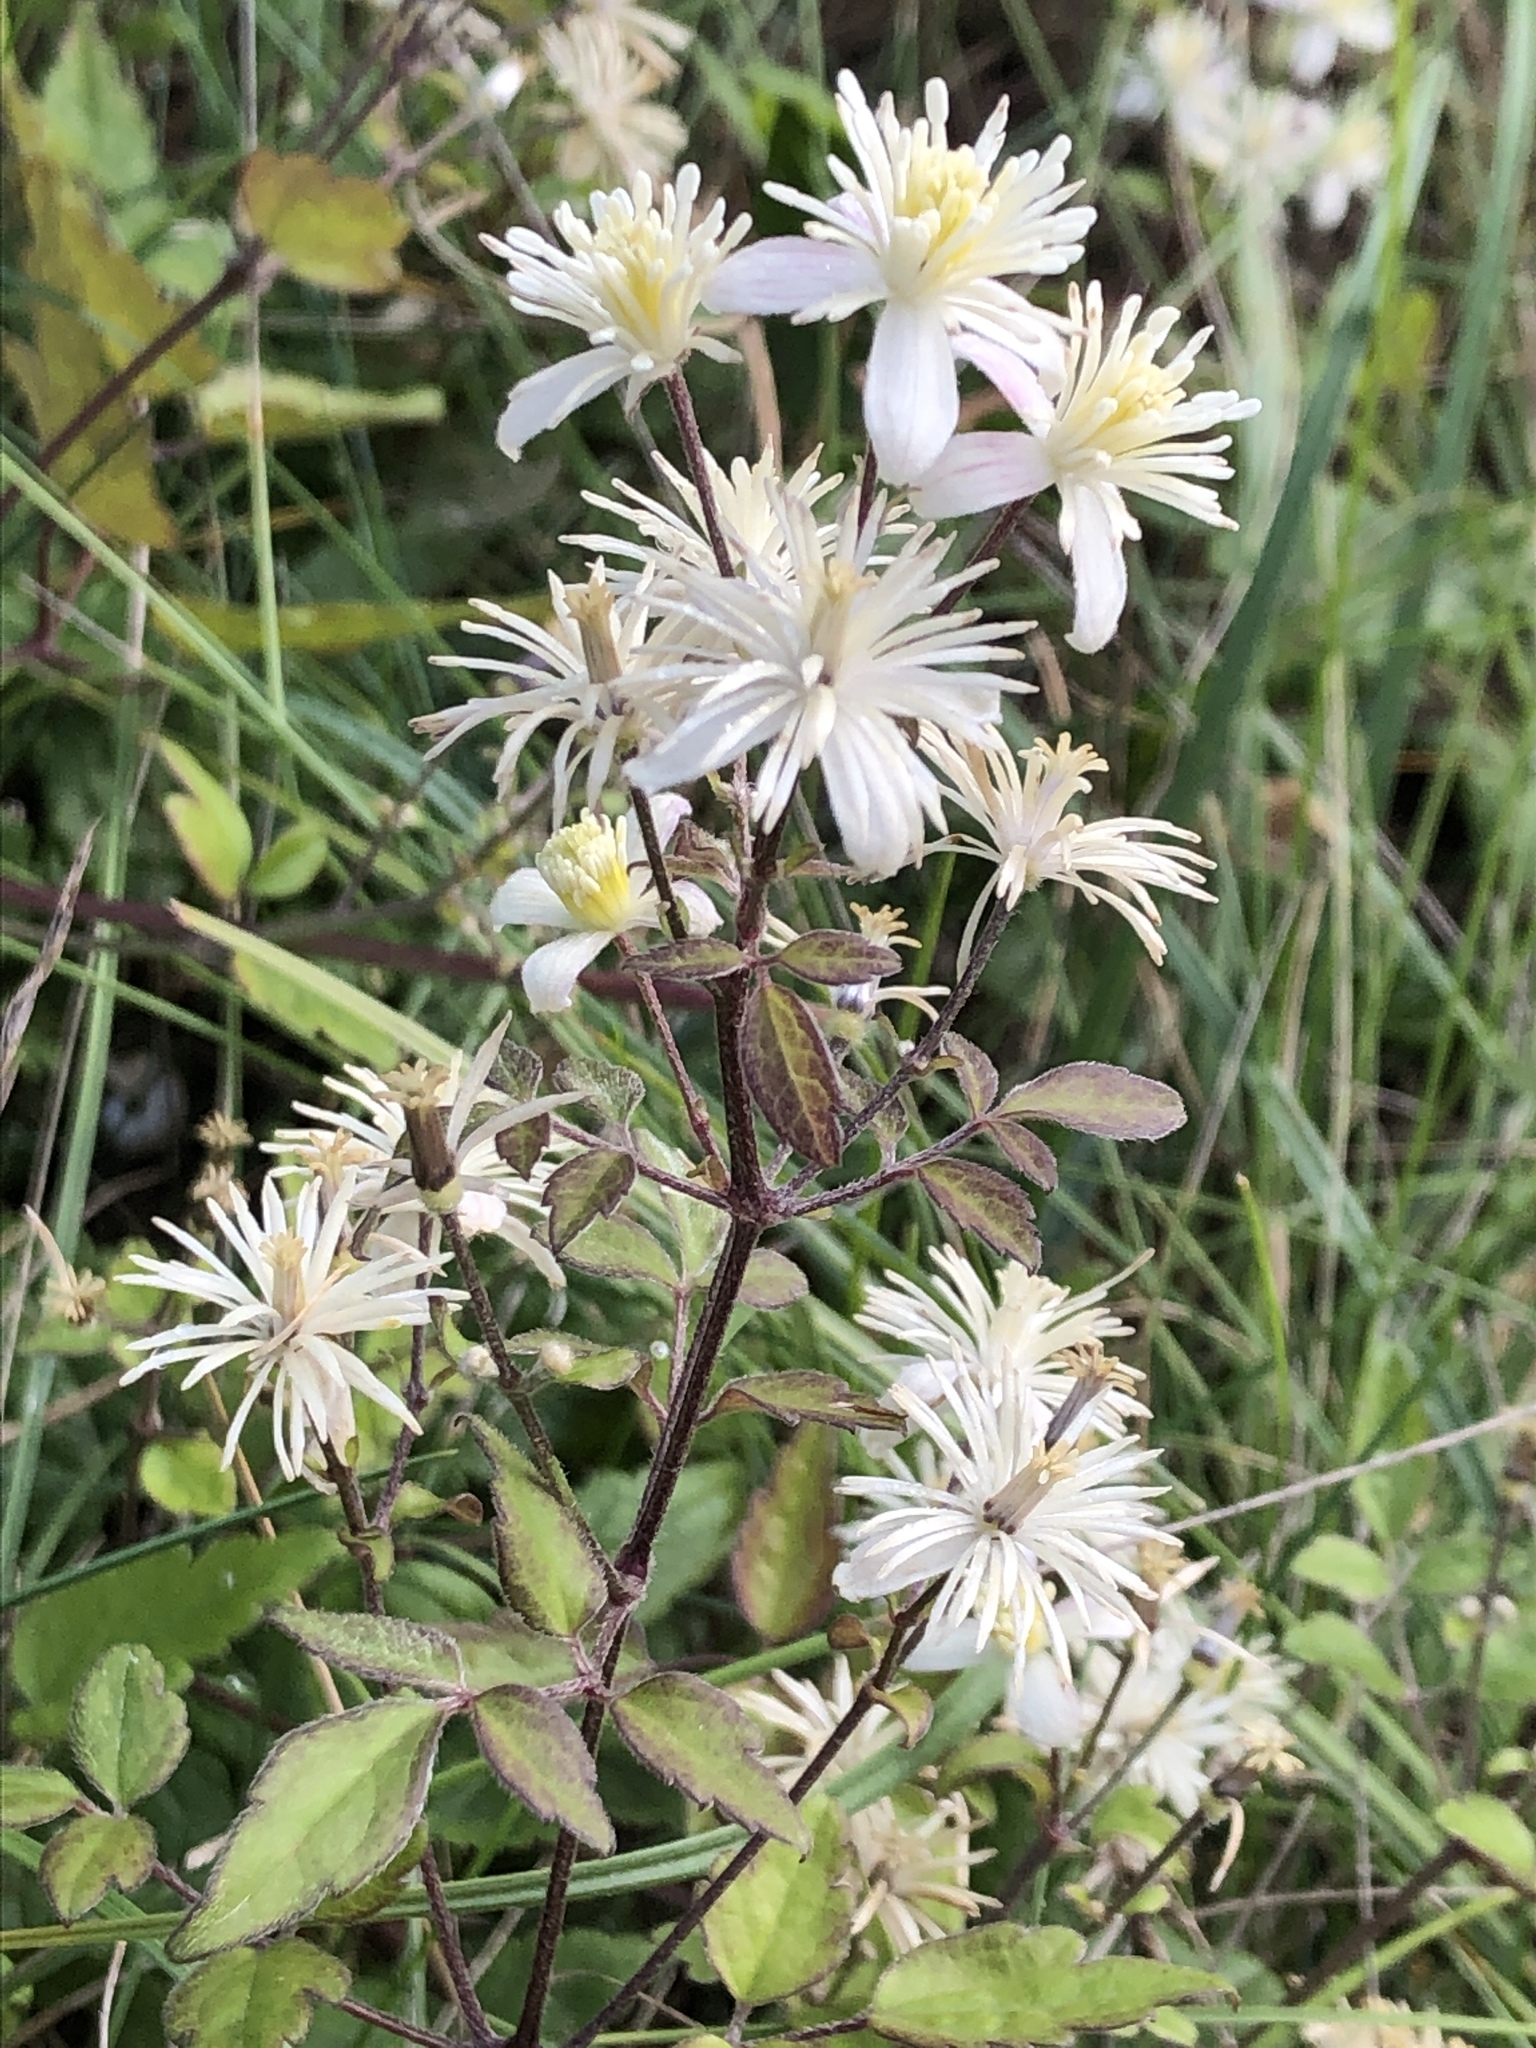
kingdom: Plantae
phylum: Tracheophyta
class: Magnoliopsida
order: Ranunculales
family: Ranunculaceae
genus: Clematis
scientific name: Clematis vitalba
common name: Evergreen clematis
